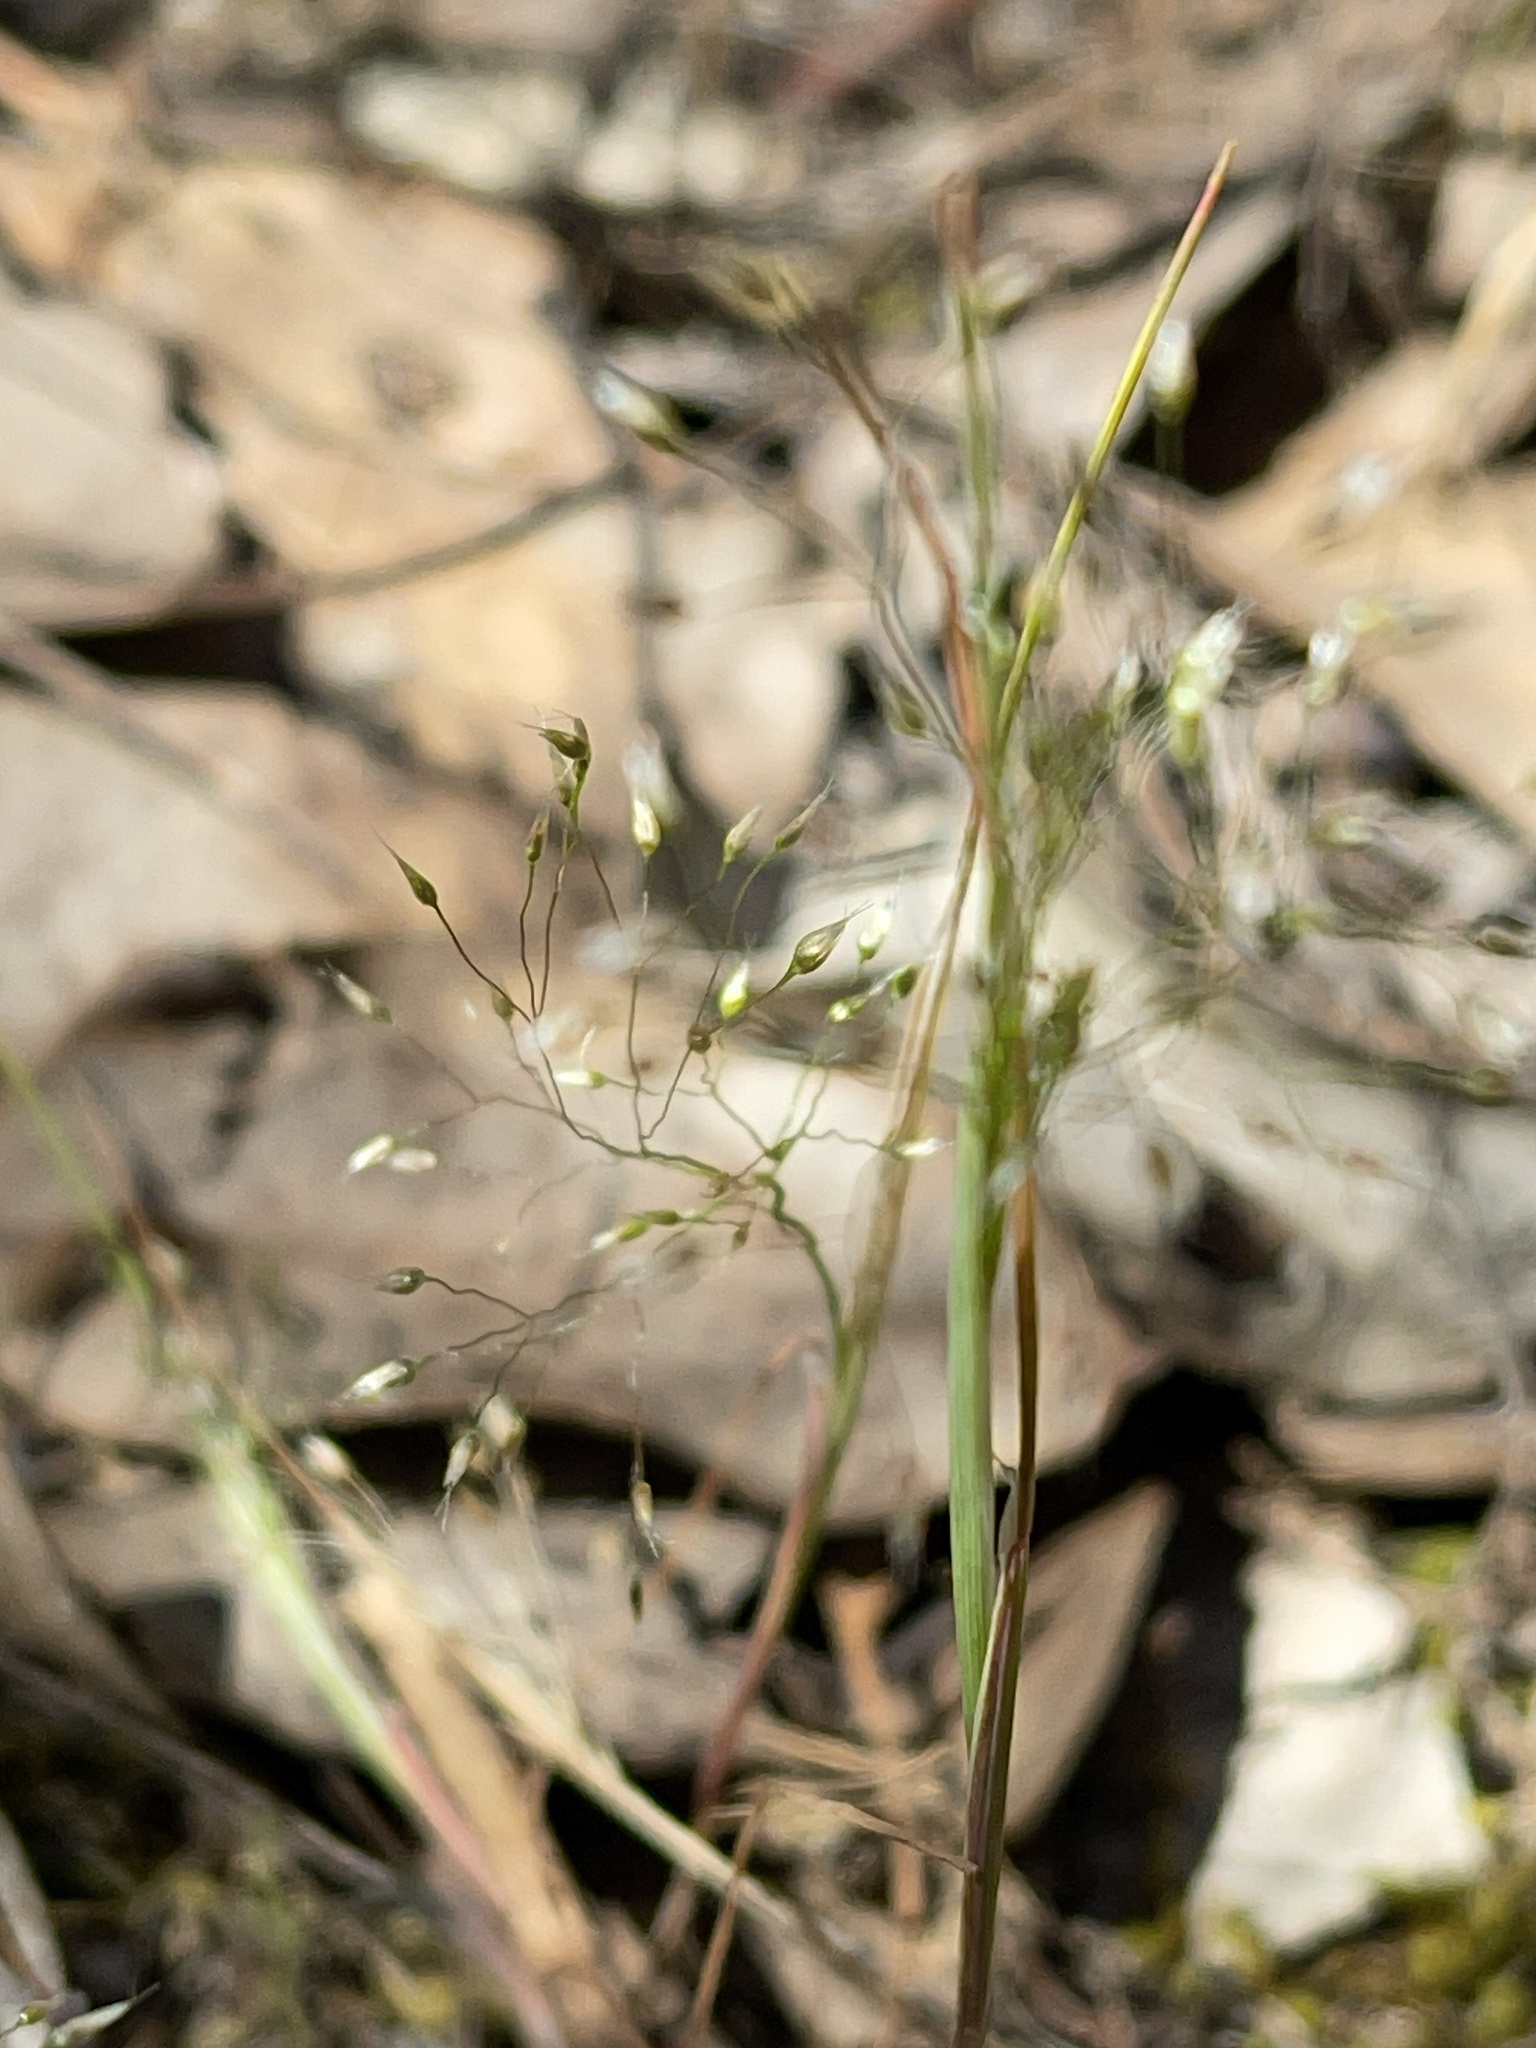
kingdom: Plantae
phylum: Tracheophyta
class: Liliopsida
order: Poales
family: Poaceae
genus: Aira
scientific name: Aira elegans
